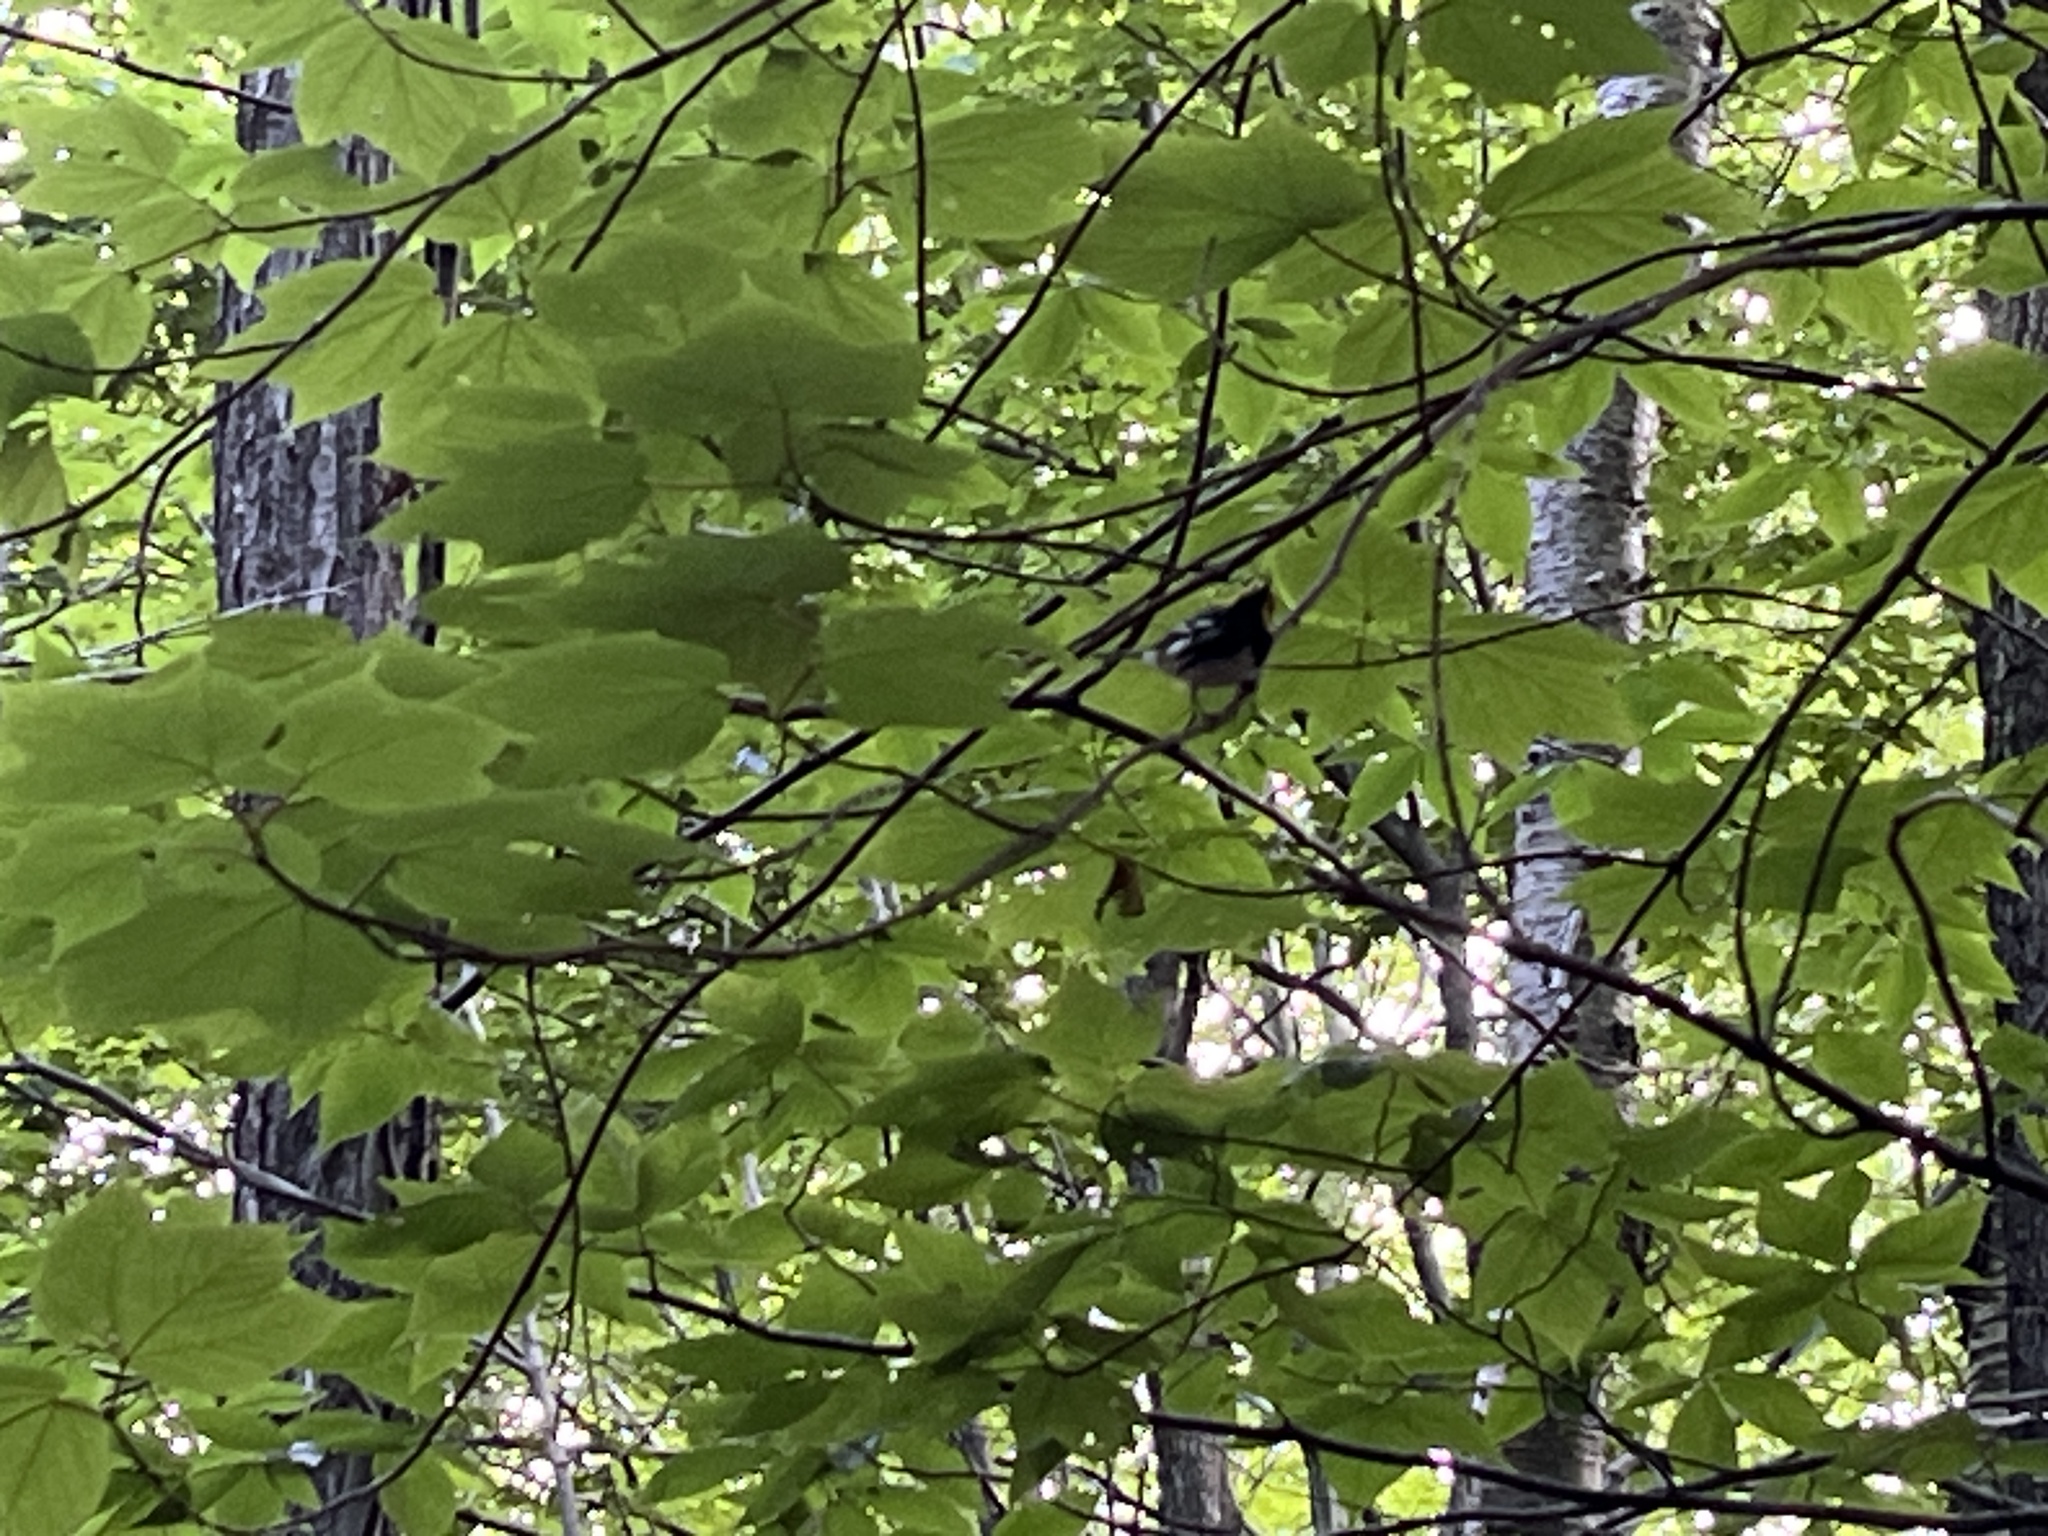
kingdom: Animalia
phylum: Chordata
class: Aves
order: Passeriformes
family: Parulidae
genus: Setophaga
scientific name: Setophaga virens
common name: Black-throated green warbler
